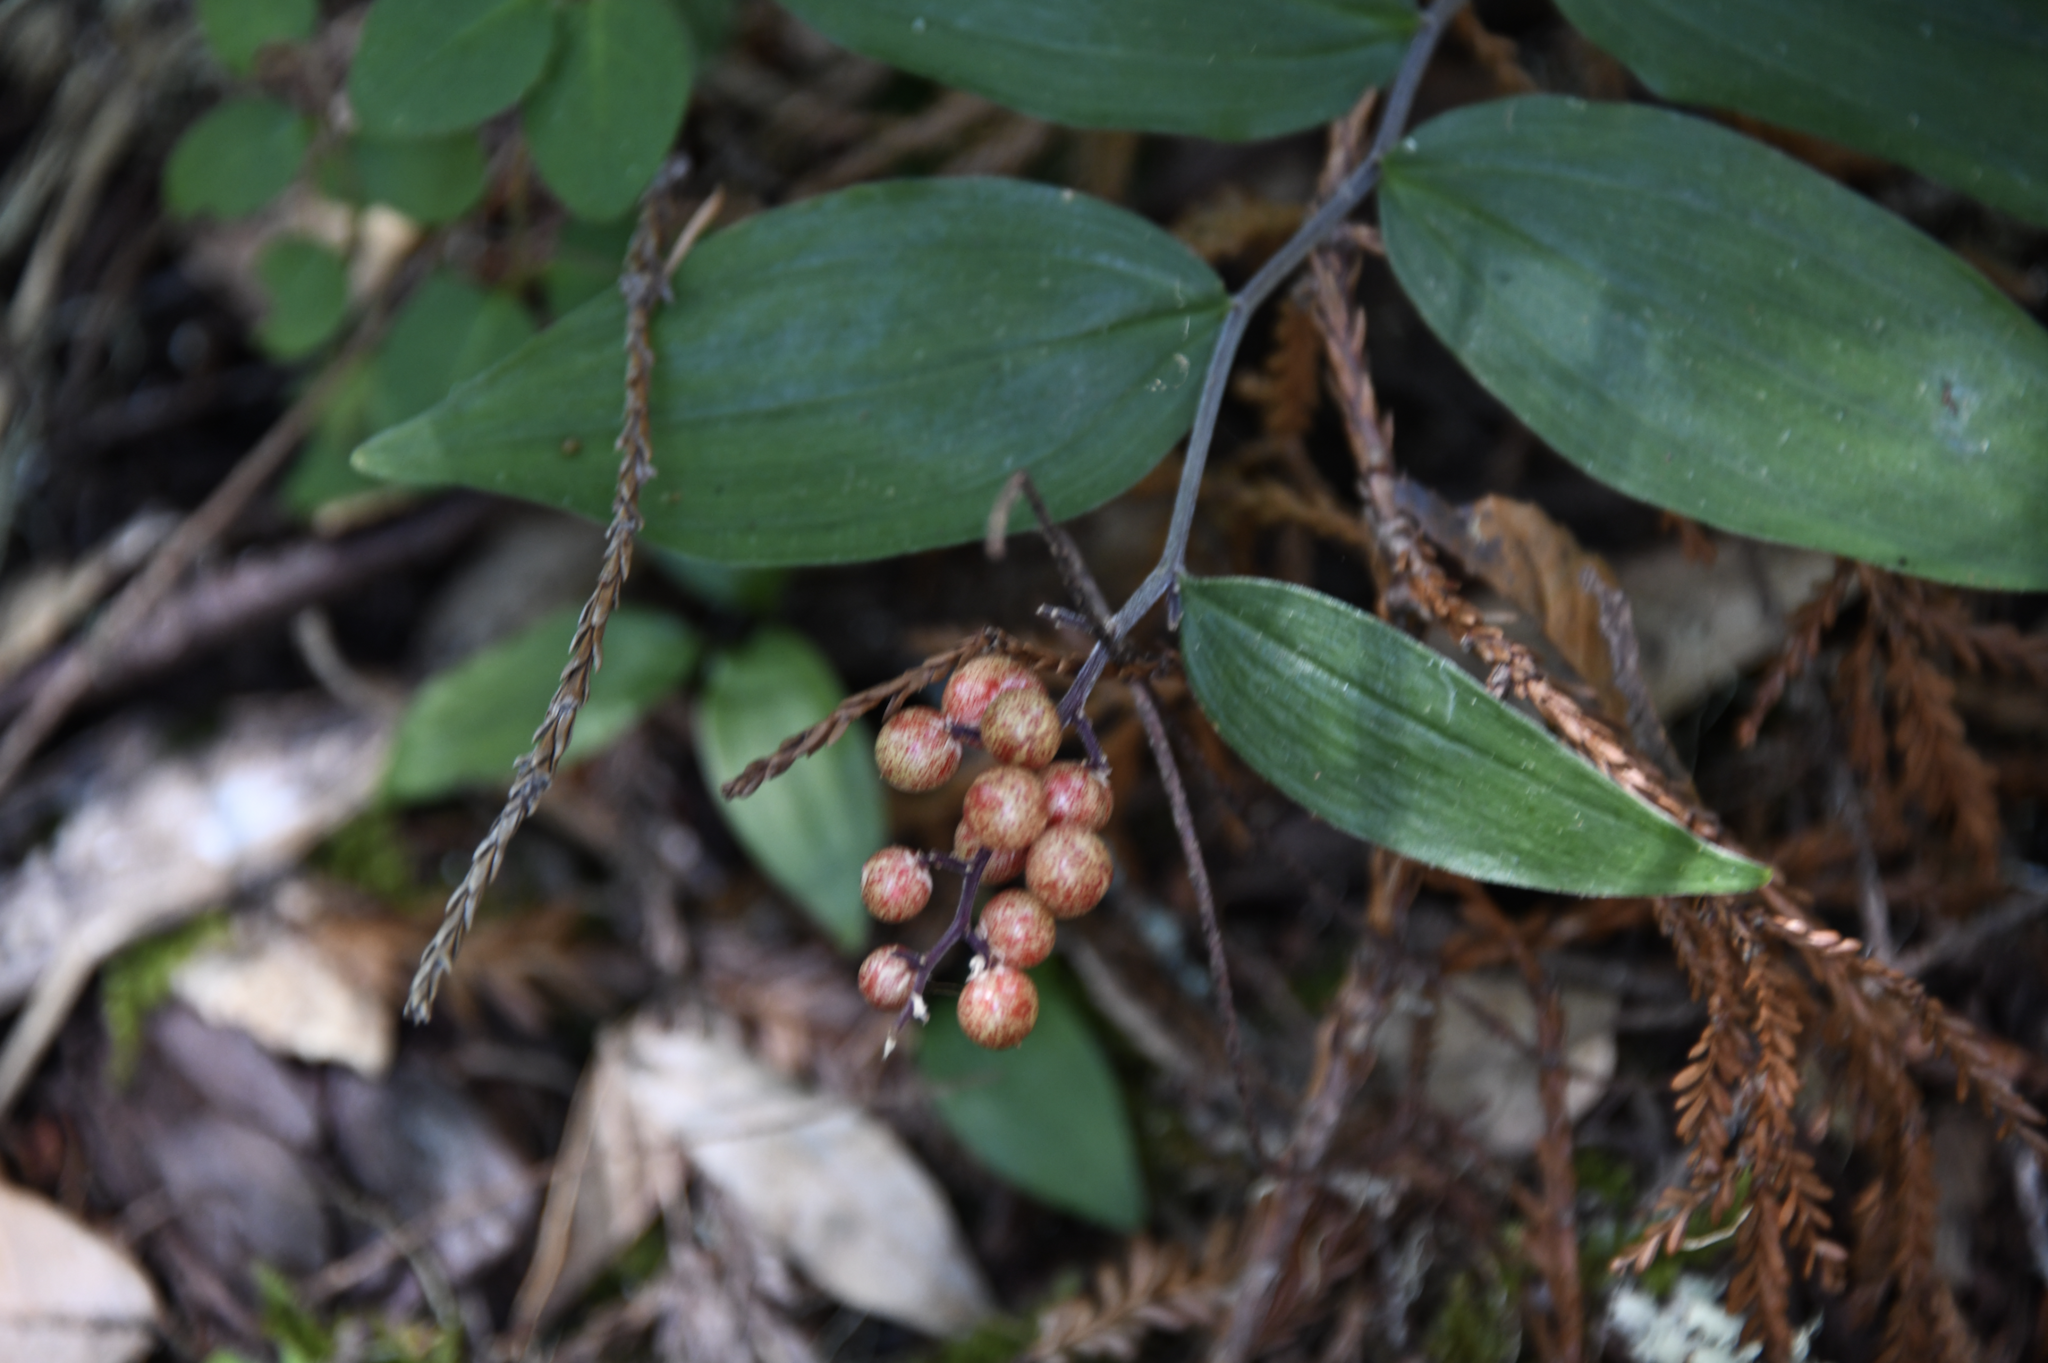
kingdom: Plantae
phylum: Tracheophyta
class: Liliopsida
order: Asparagales
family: Asparagaceae
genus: Maianthemum
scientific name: Maianthemum racemosum
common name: False spikenard
